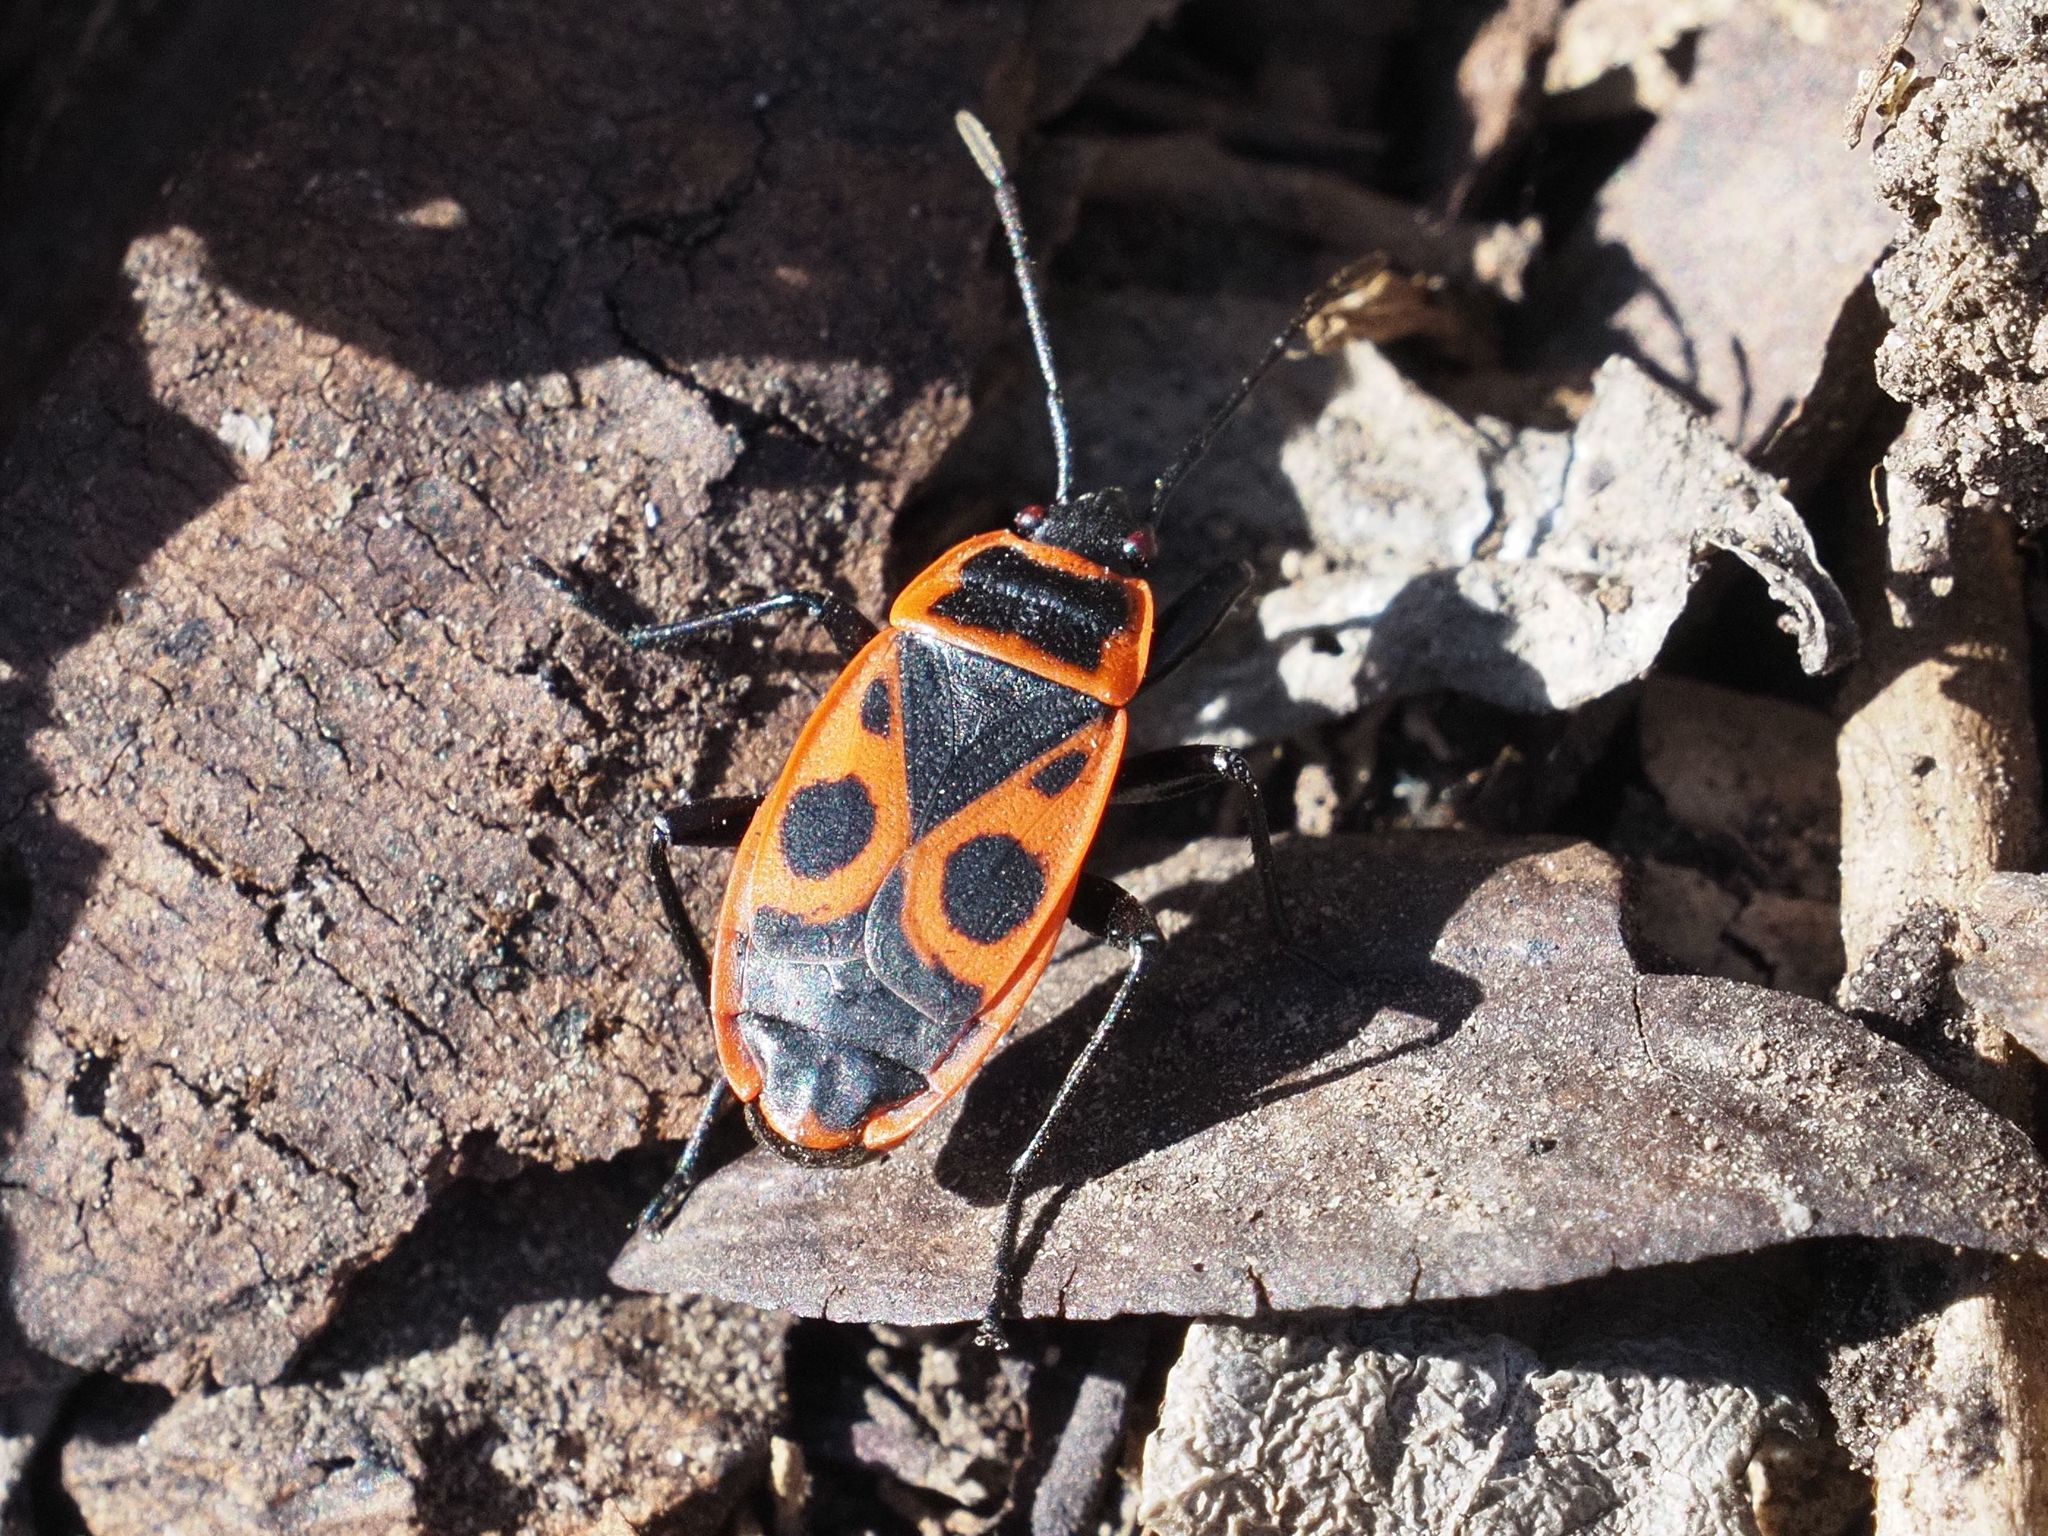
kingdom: Animalia
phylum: Arthropoda
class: Insecta
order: Hemiptera
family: Pyrrhocoridae
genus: Pyrrhocoris
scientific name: Pyrrhocoris apterus
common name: Firebug
